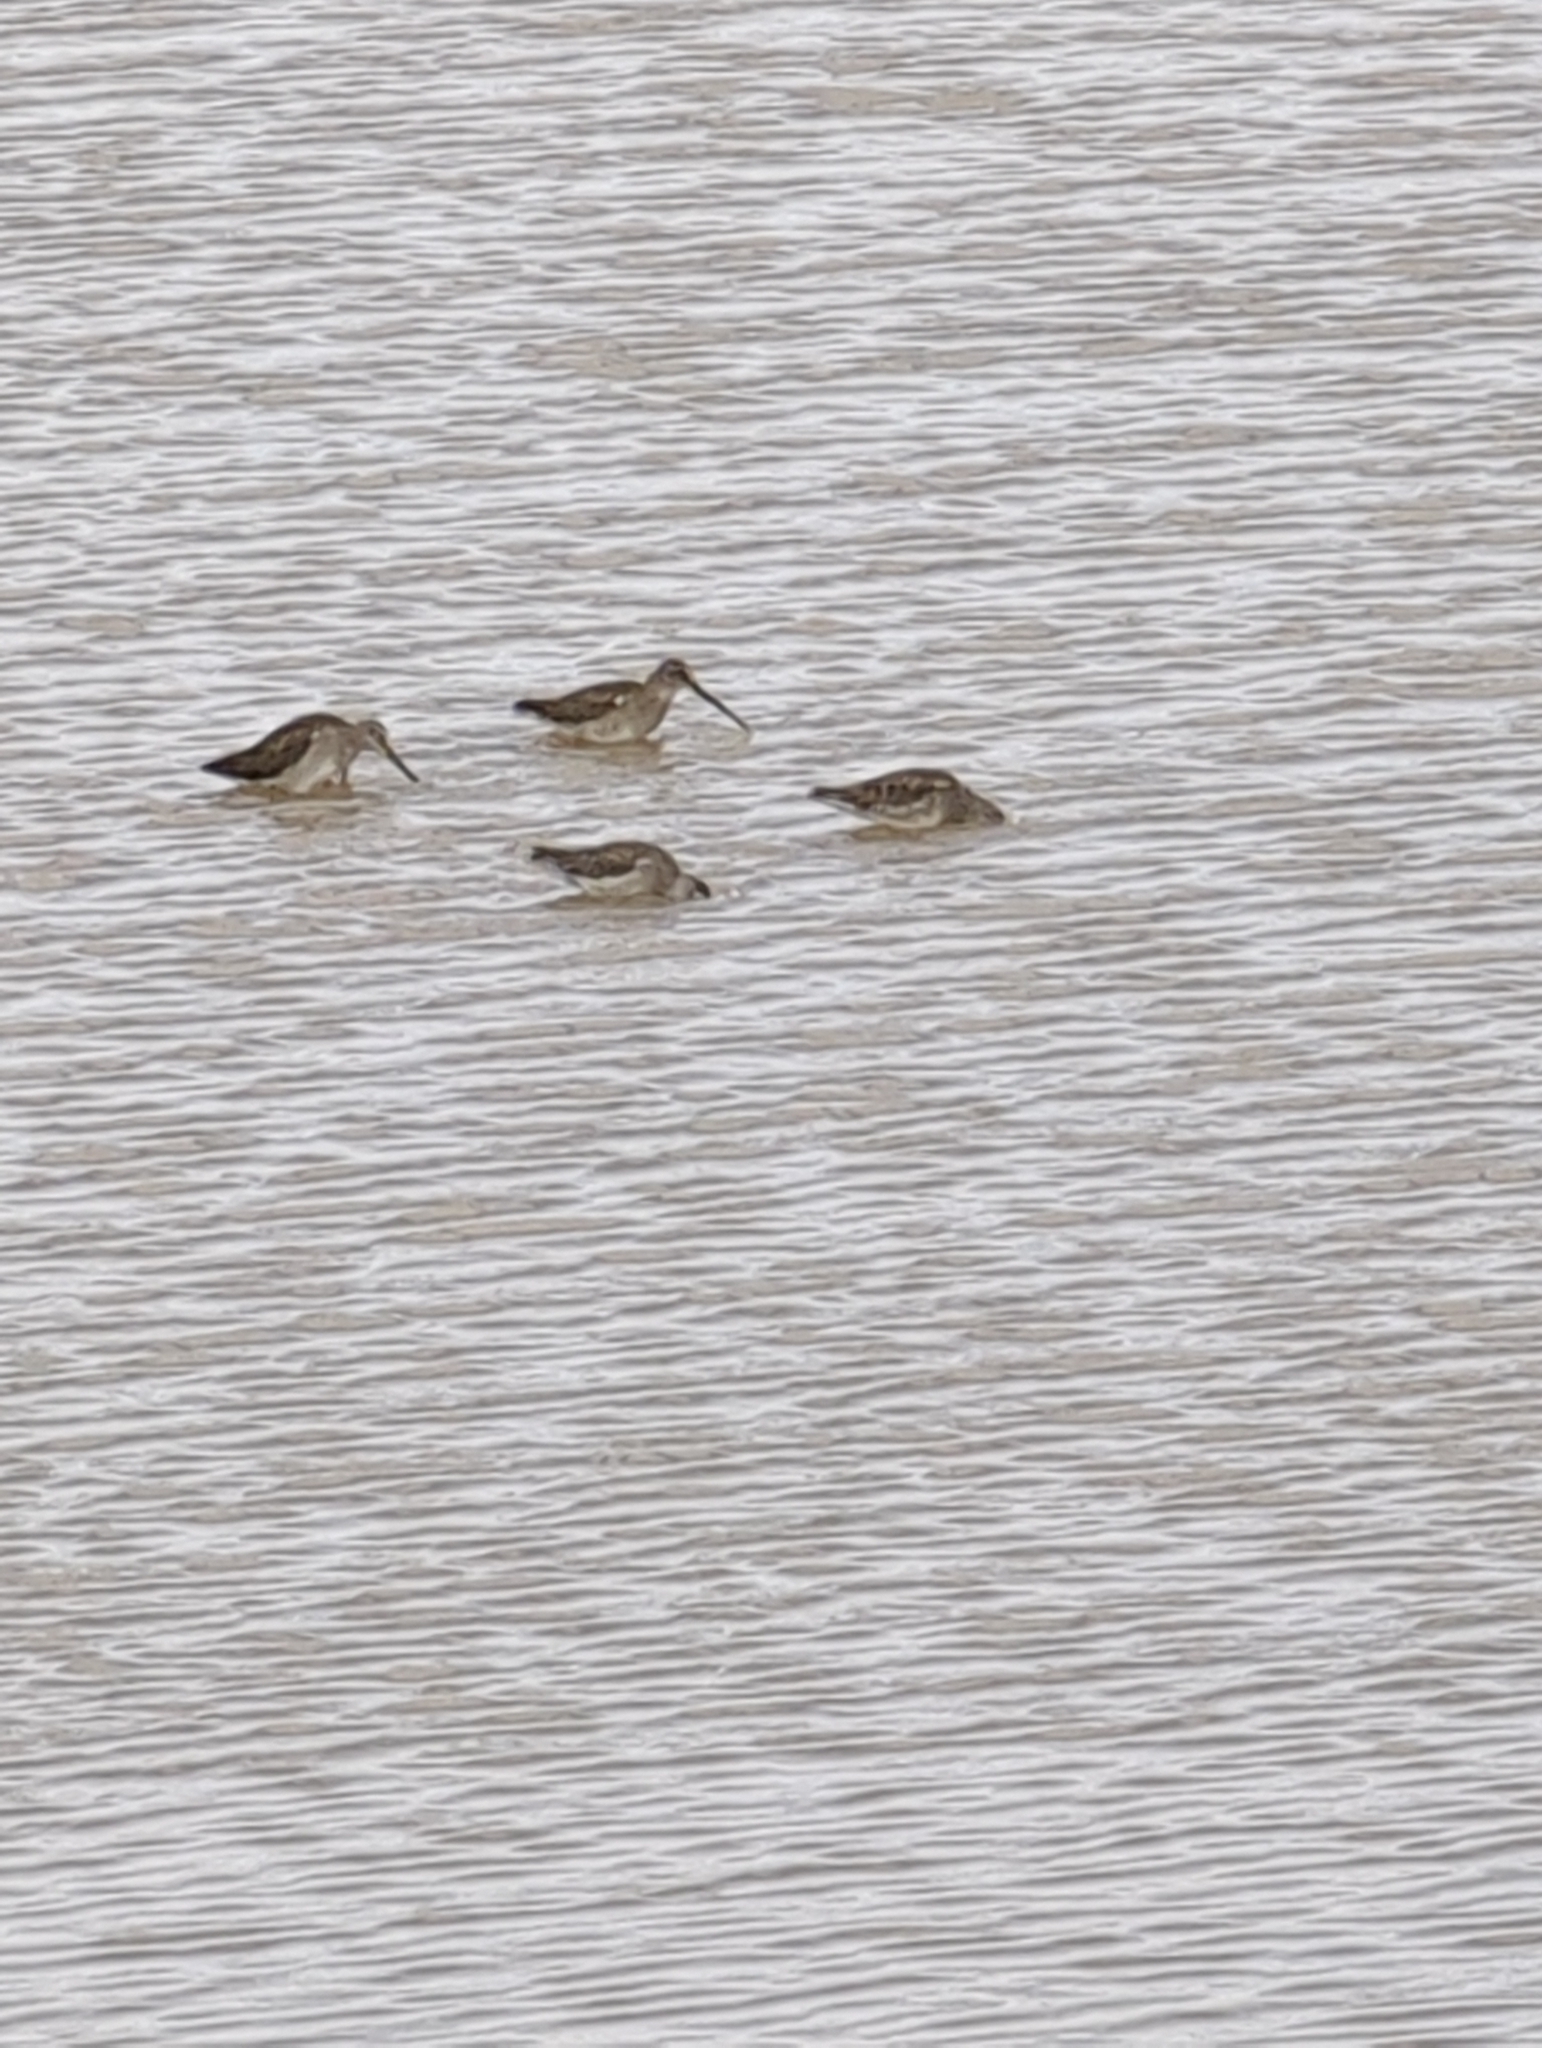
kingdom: Animalia
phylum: Chordata
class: Aves
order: Charadriiformes
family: Scolopacidae
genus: Limnodromus
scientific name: Limnodromus scolopaceus
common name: Long-billed dowitcher
